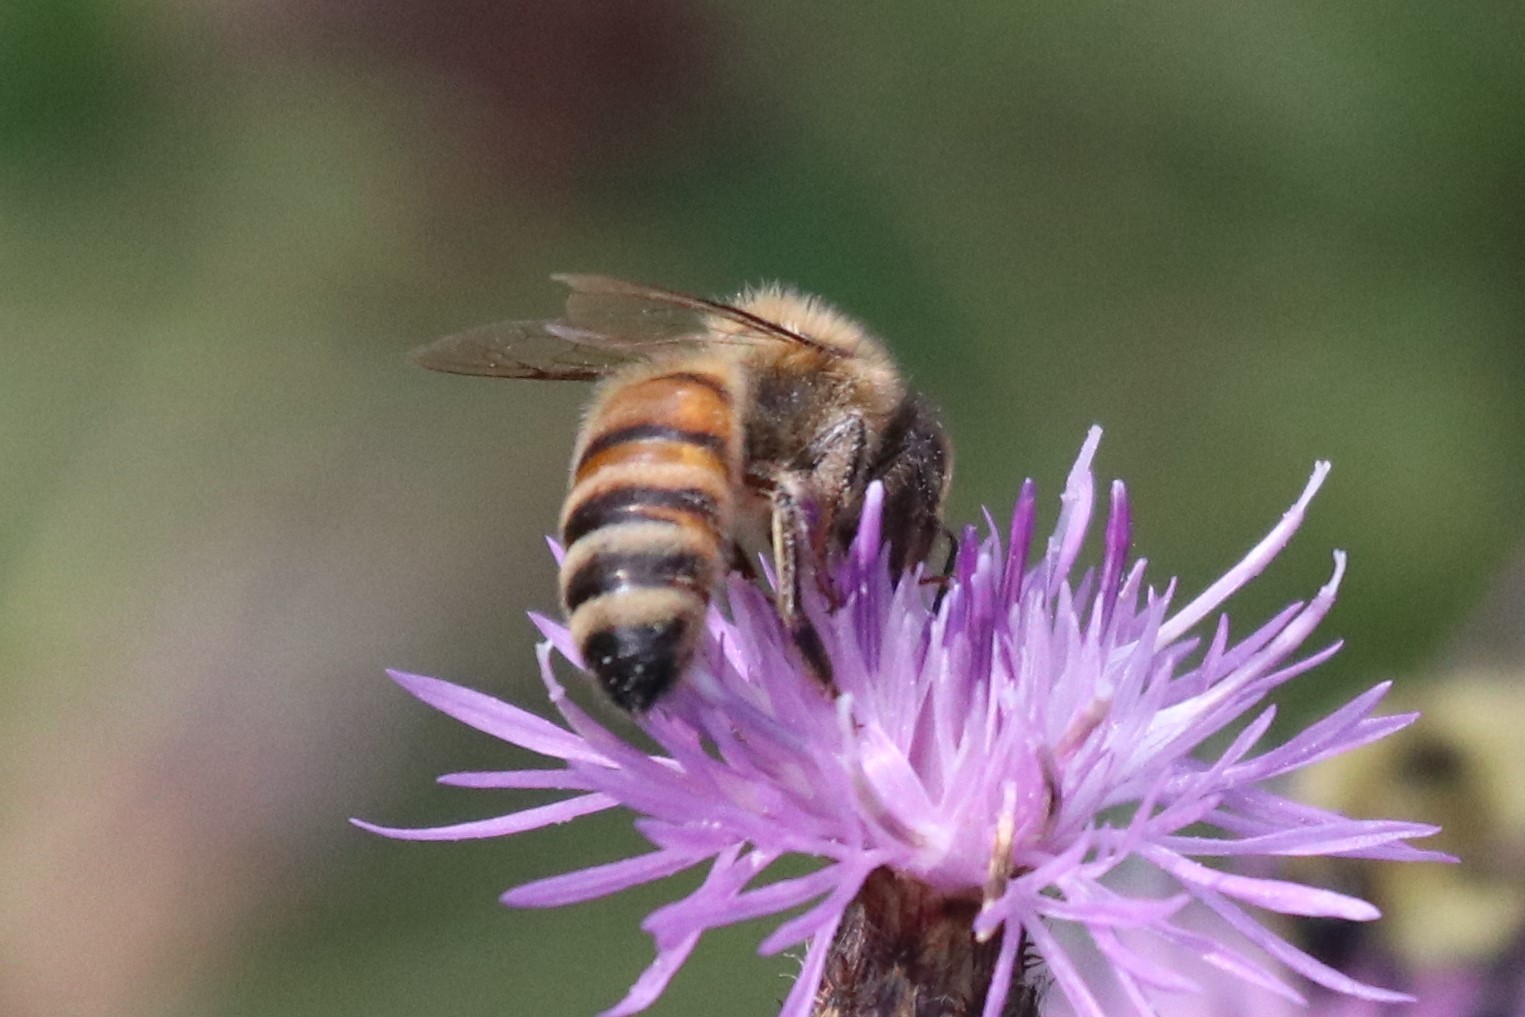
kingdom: Animalia
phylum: Arthropoda
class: Insecta
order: Hymenoptera
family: Apidae
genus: Apis
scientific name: Apis mellifera
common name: Honey bee
